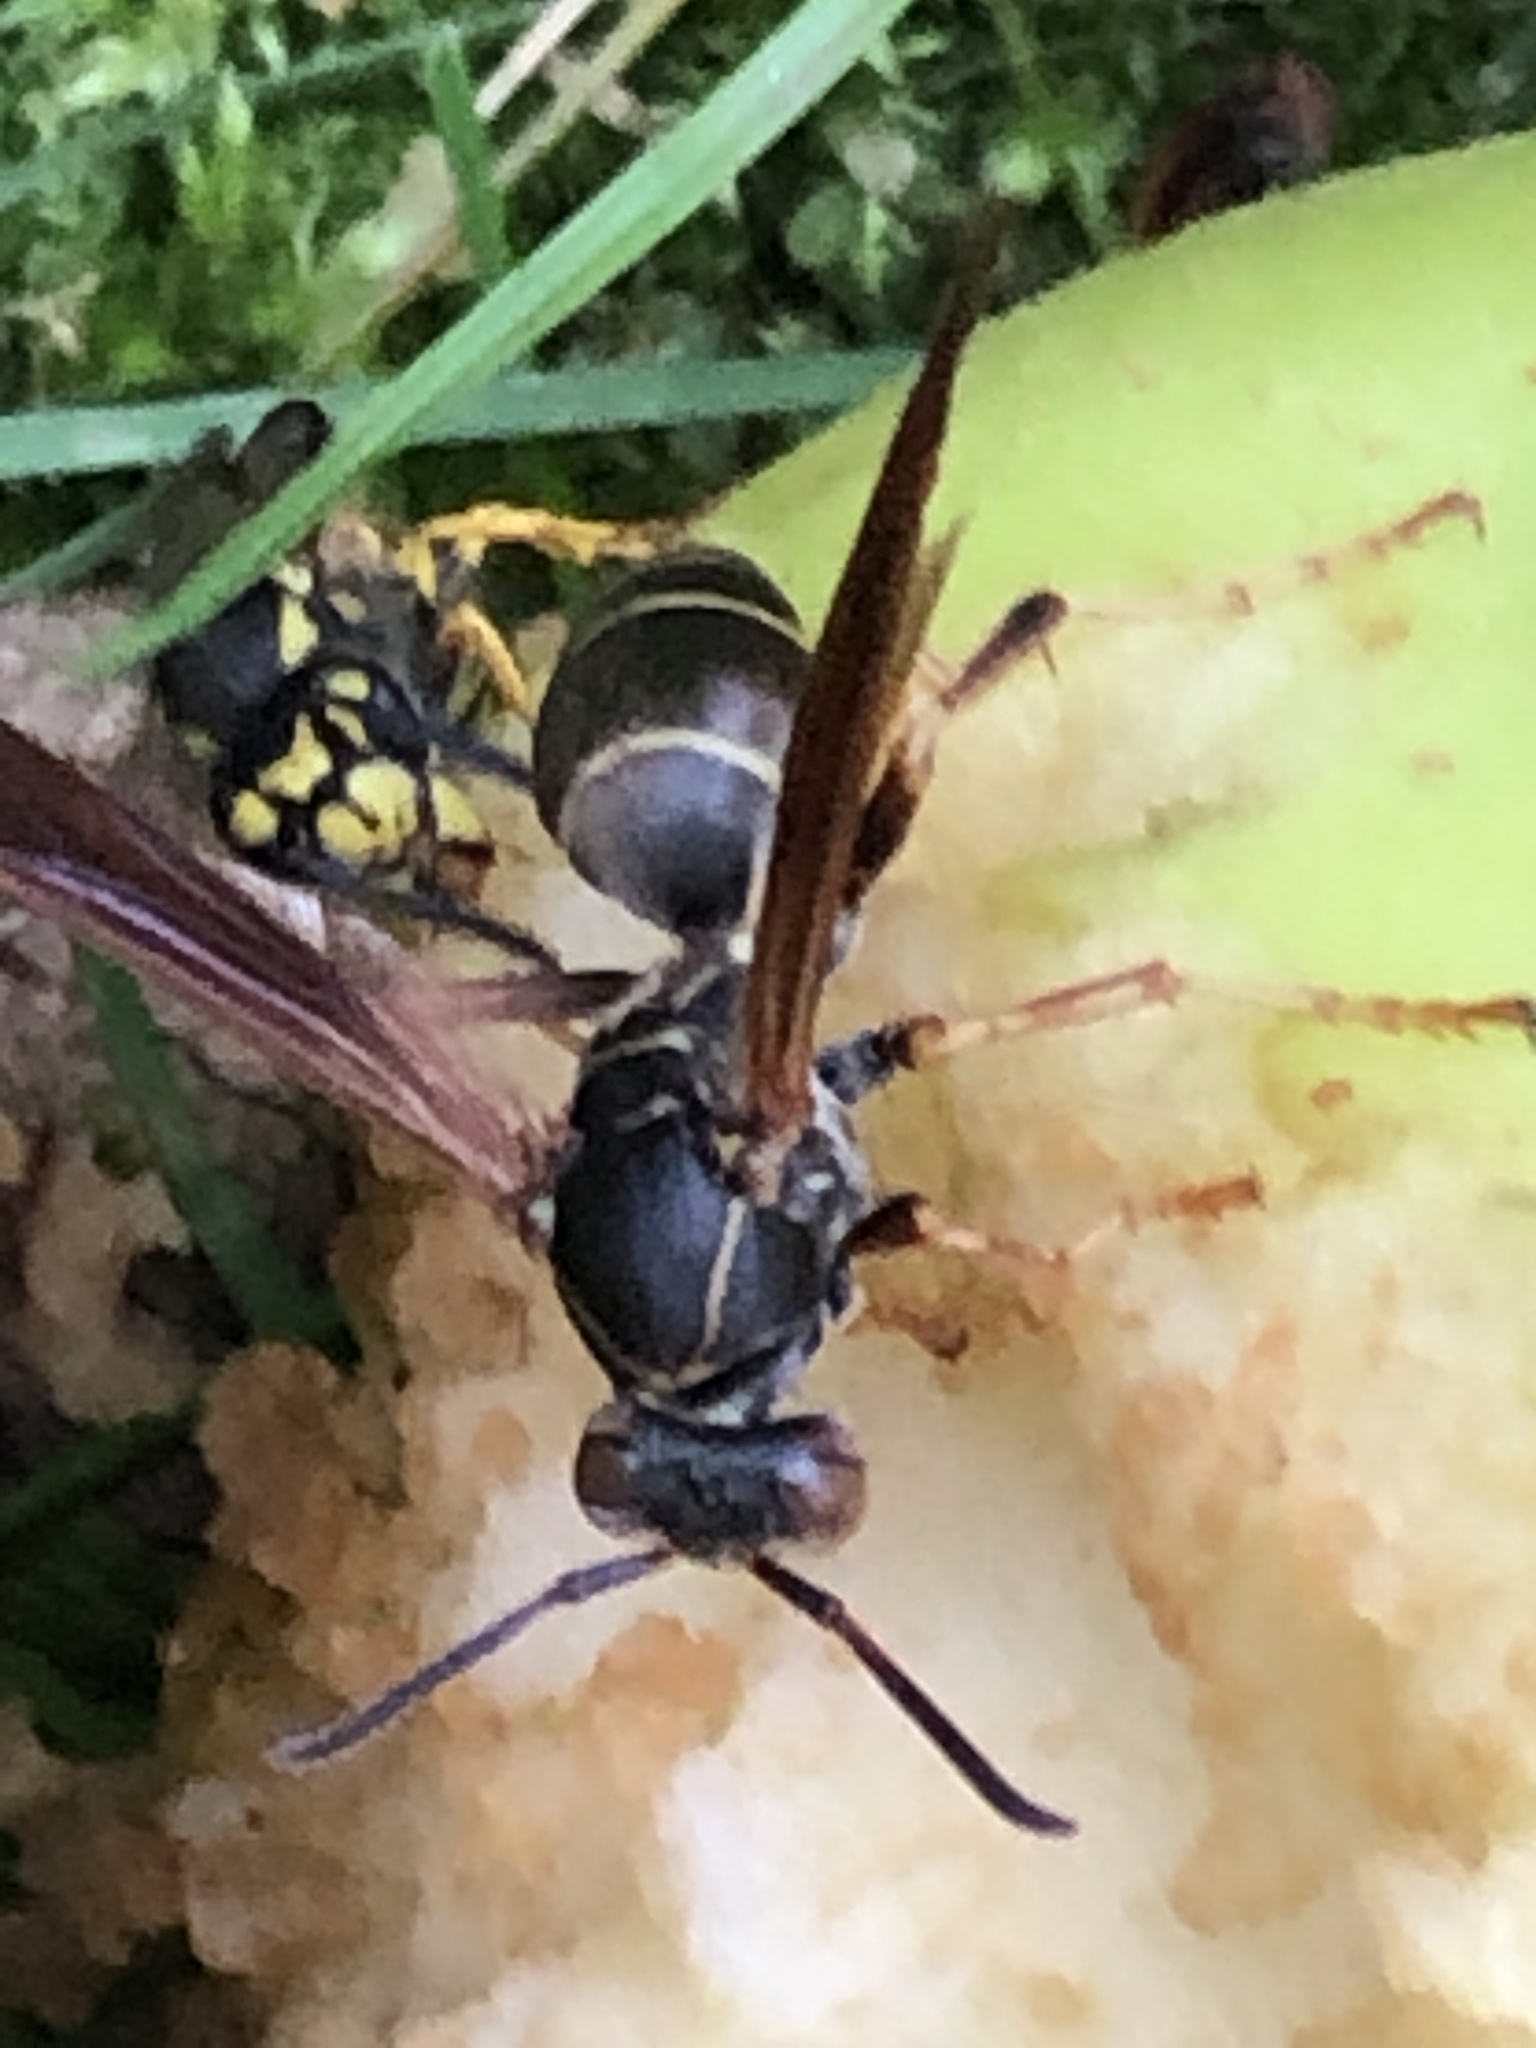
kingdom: Animalia
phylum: Arthropoda
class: Insecta
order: Hymenoptera
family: Eumenidae
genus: Polistes
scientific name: Polistes fuscatus
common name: Dark paper wasp
